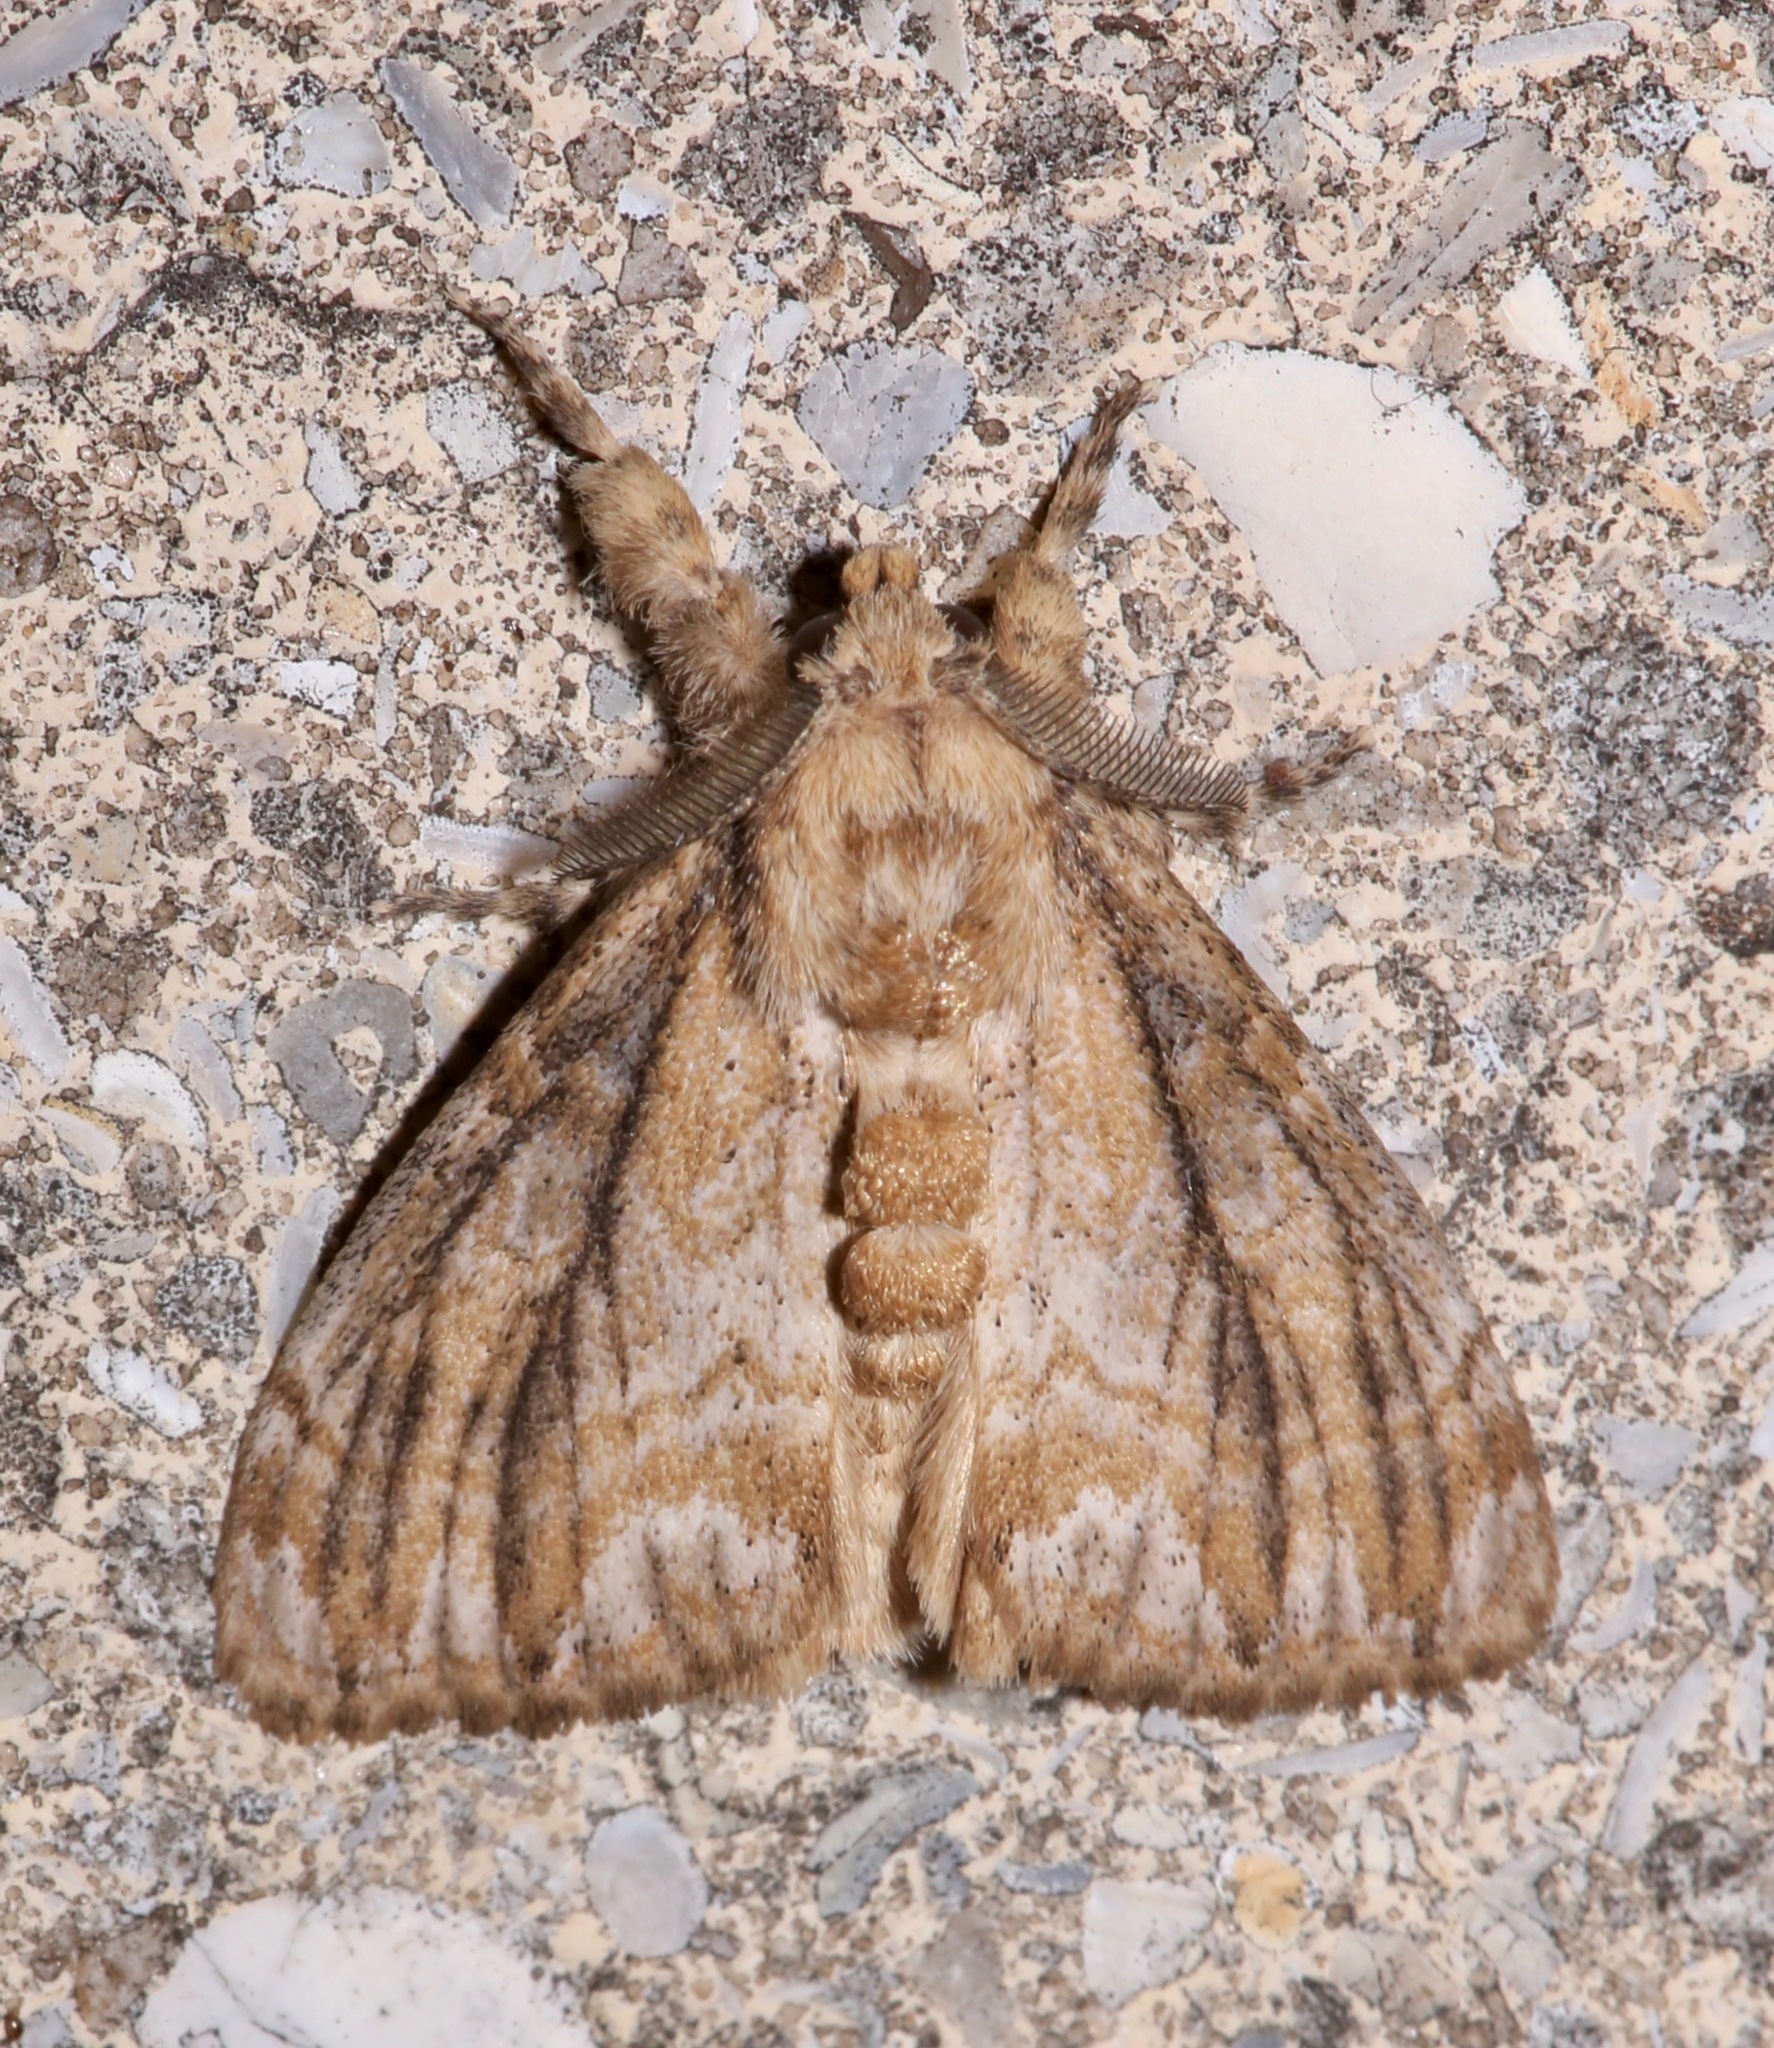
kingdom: Animalia
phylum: Arthropoda
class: Insecta
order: Lepidoptera
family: Erebidae
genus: Dasychira
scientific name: Dasychira atrivenosa
